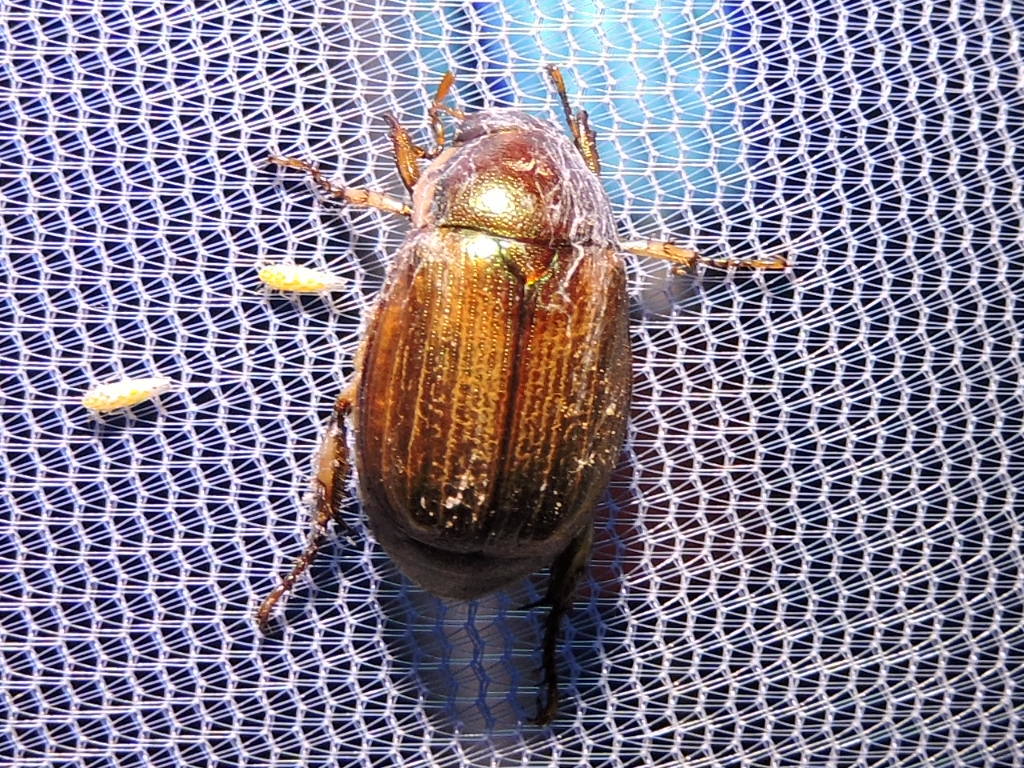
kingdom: Animalia
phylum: Arthropoda
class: Insecta
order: Coleoptera
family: Scarabaeidae
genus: Callistethus
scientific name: Callistethus marginatus
